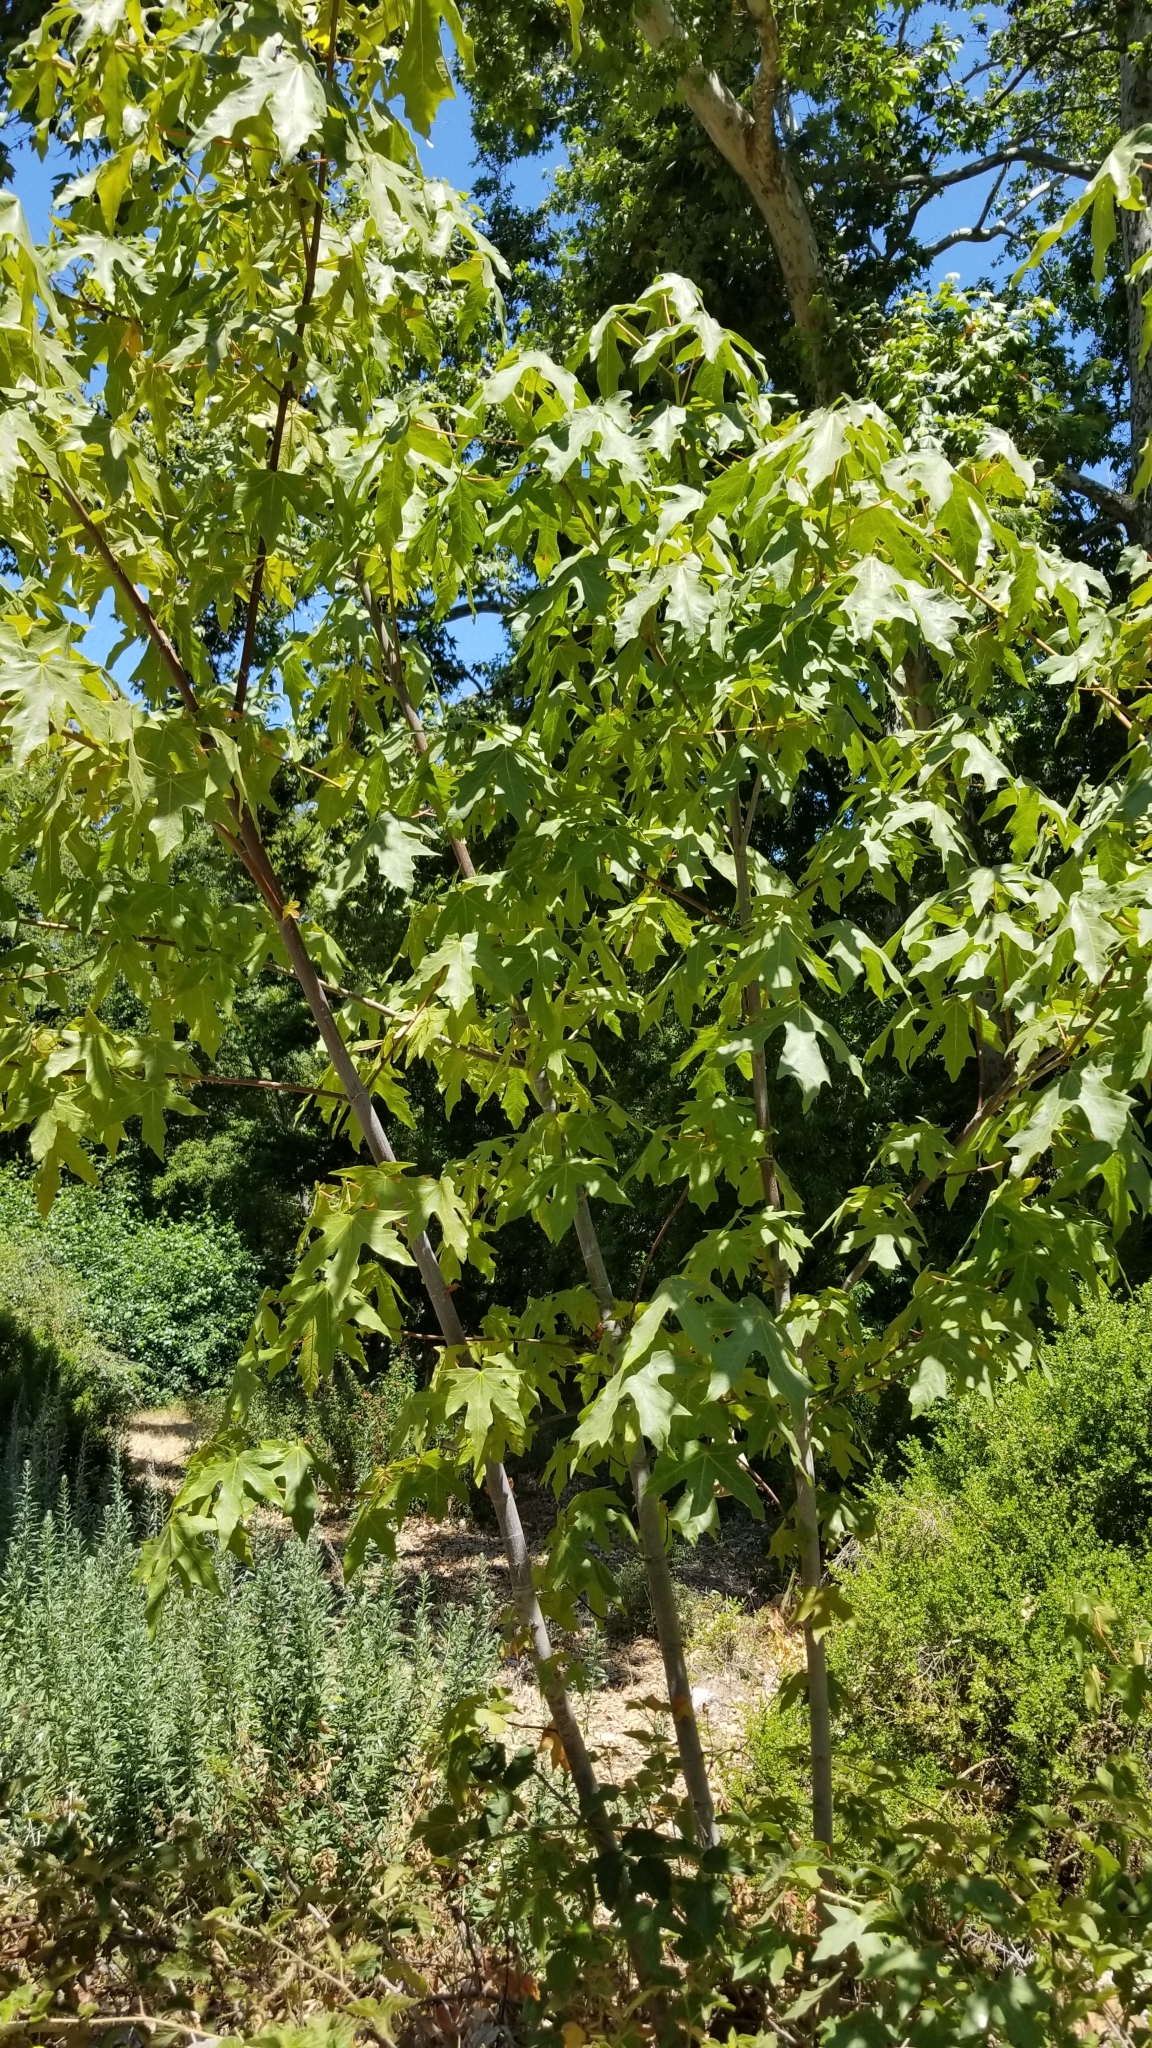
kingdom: Plantae
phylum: Tracheophyta
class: Magnoliopsida
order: Sapindales
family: Sapindaceae
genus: Acer
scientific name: Acer macrophyllum
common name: Oregon maple
